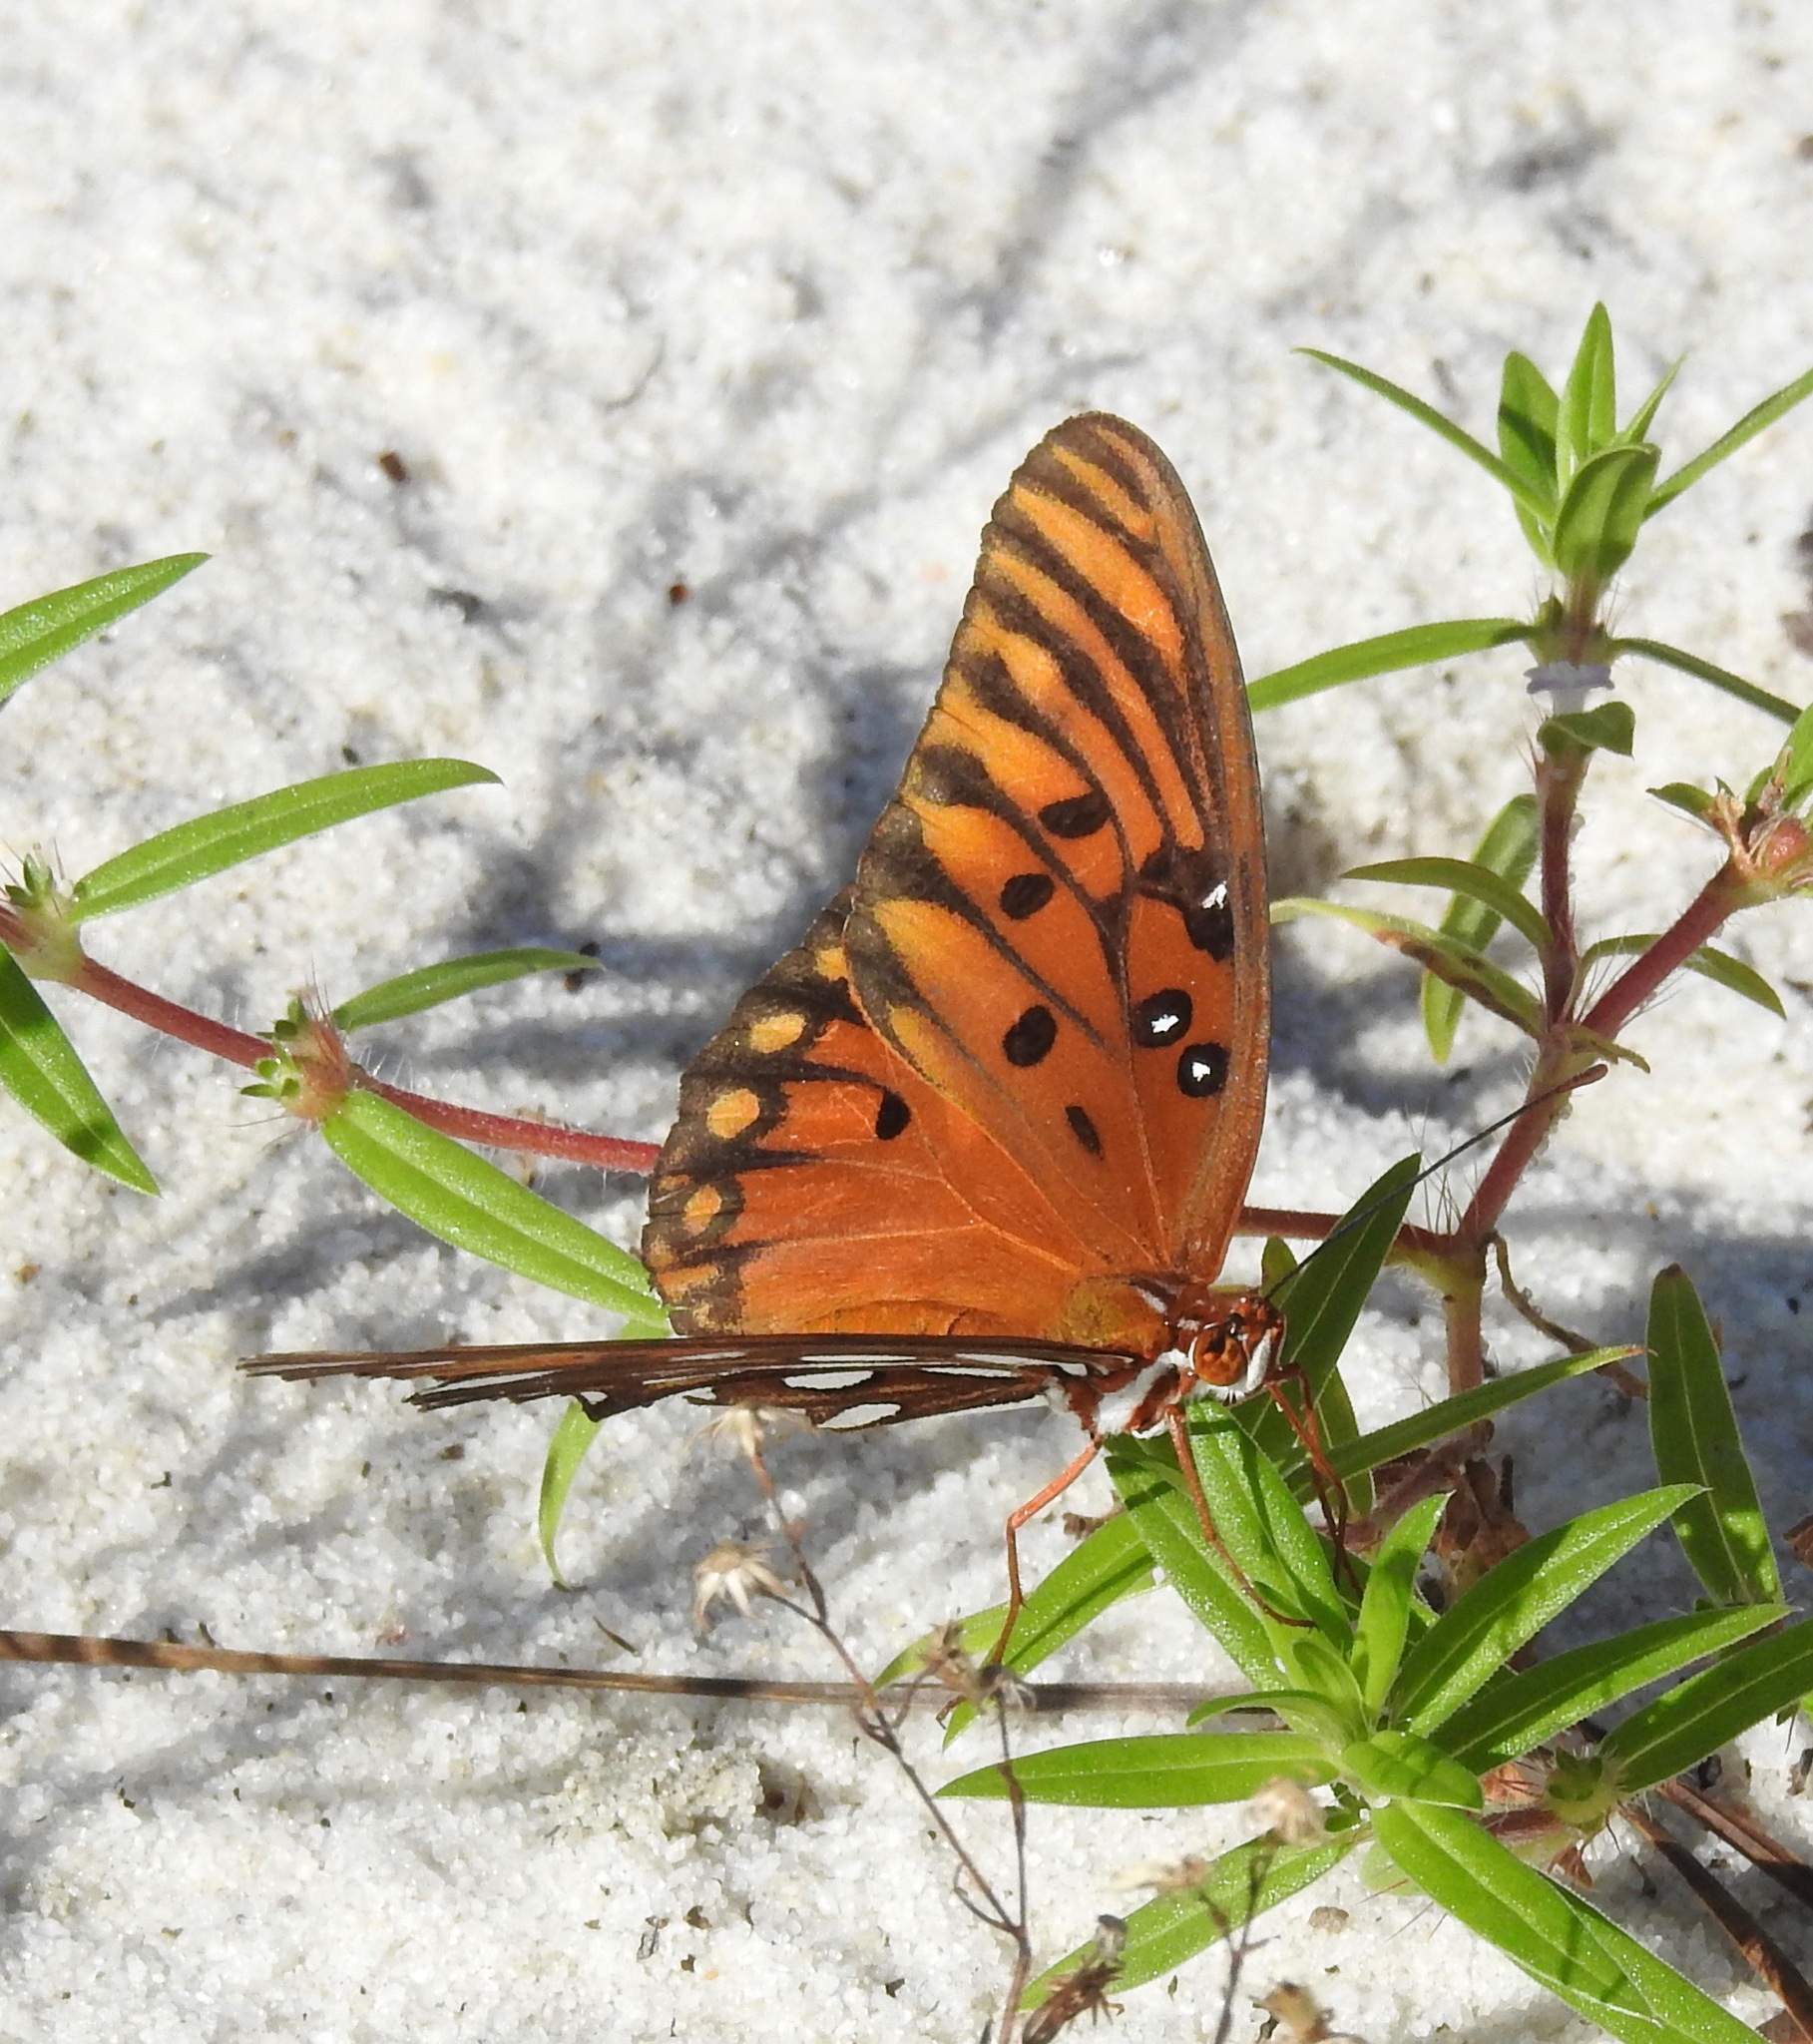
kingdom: Animalia
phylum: Arthropoda
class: Insecta
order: Lepidoptera
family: Nymphalidae
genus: Dione
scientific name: Dione vanillae
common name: Gulf fritillary
